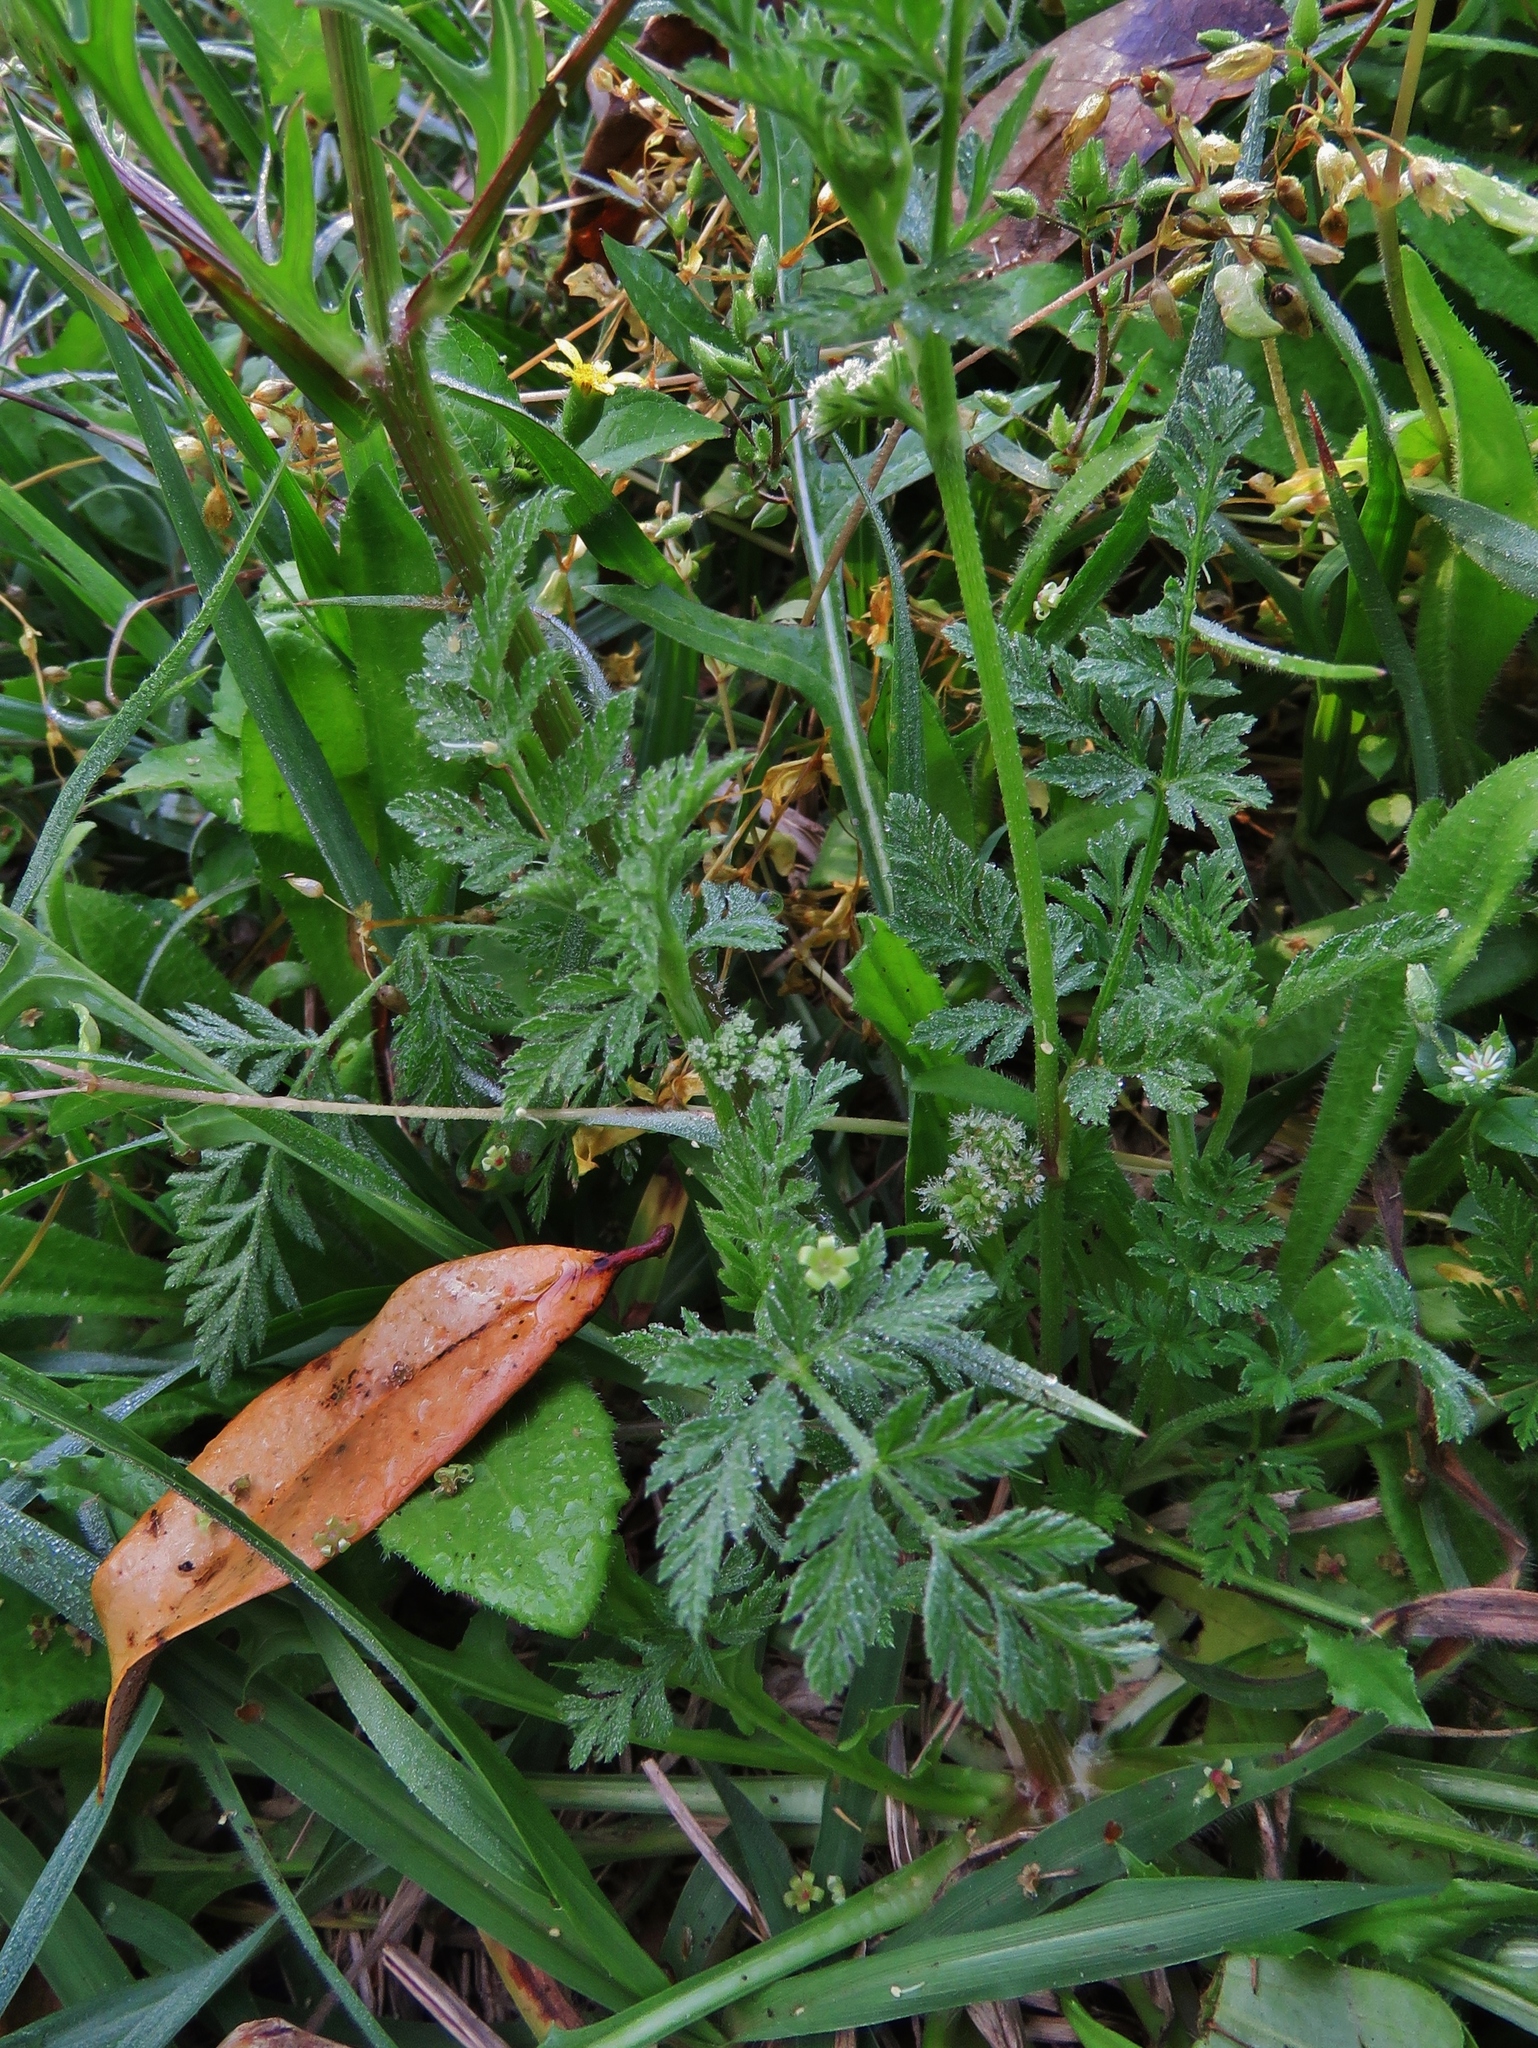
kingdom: Plantae
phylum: Tracheophyta
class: Magnoliopsida
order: Apiales
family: Apiaceae
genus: Torilis
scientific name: Torilis nodosa
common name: Knotted hedge-parsley
